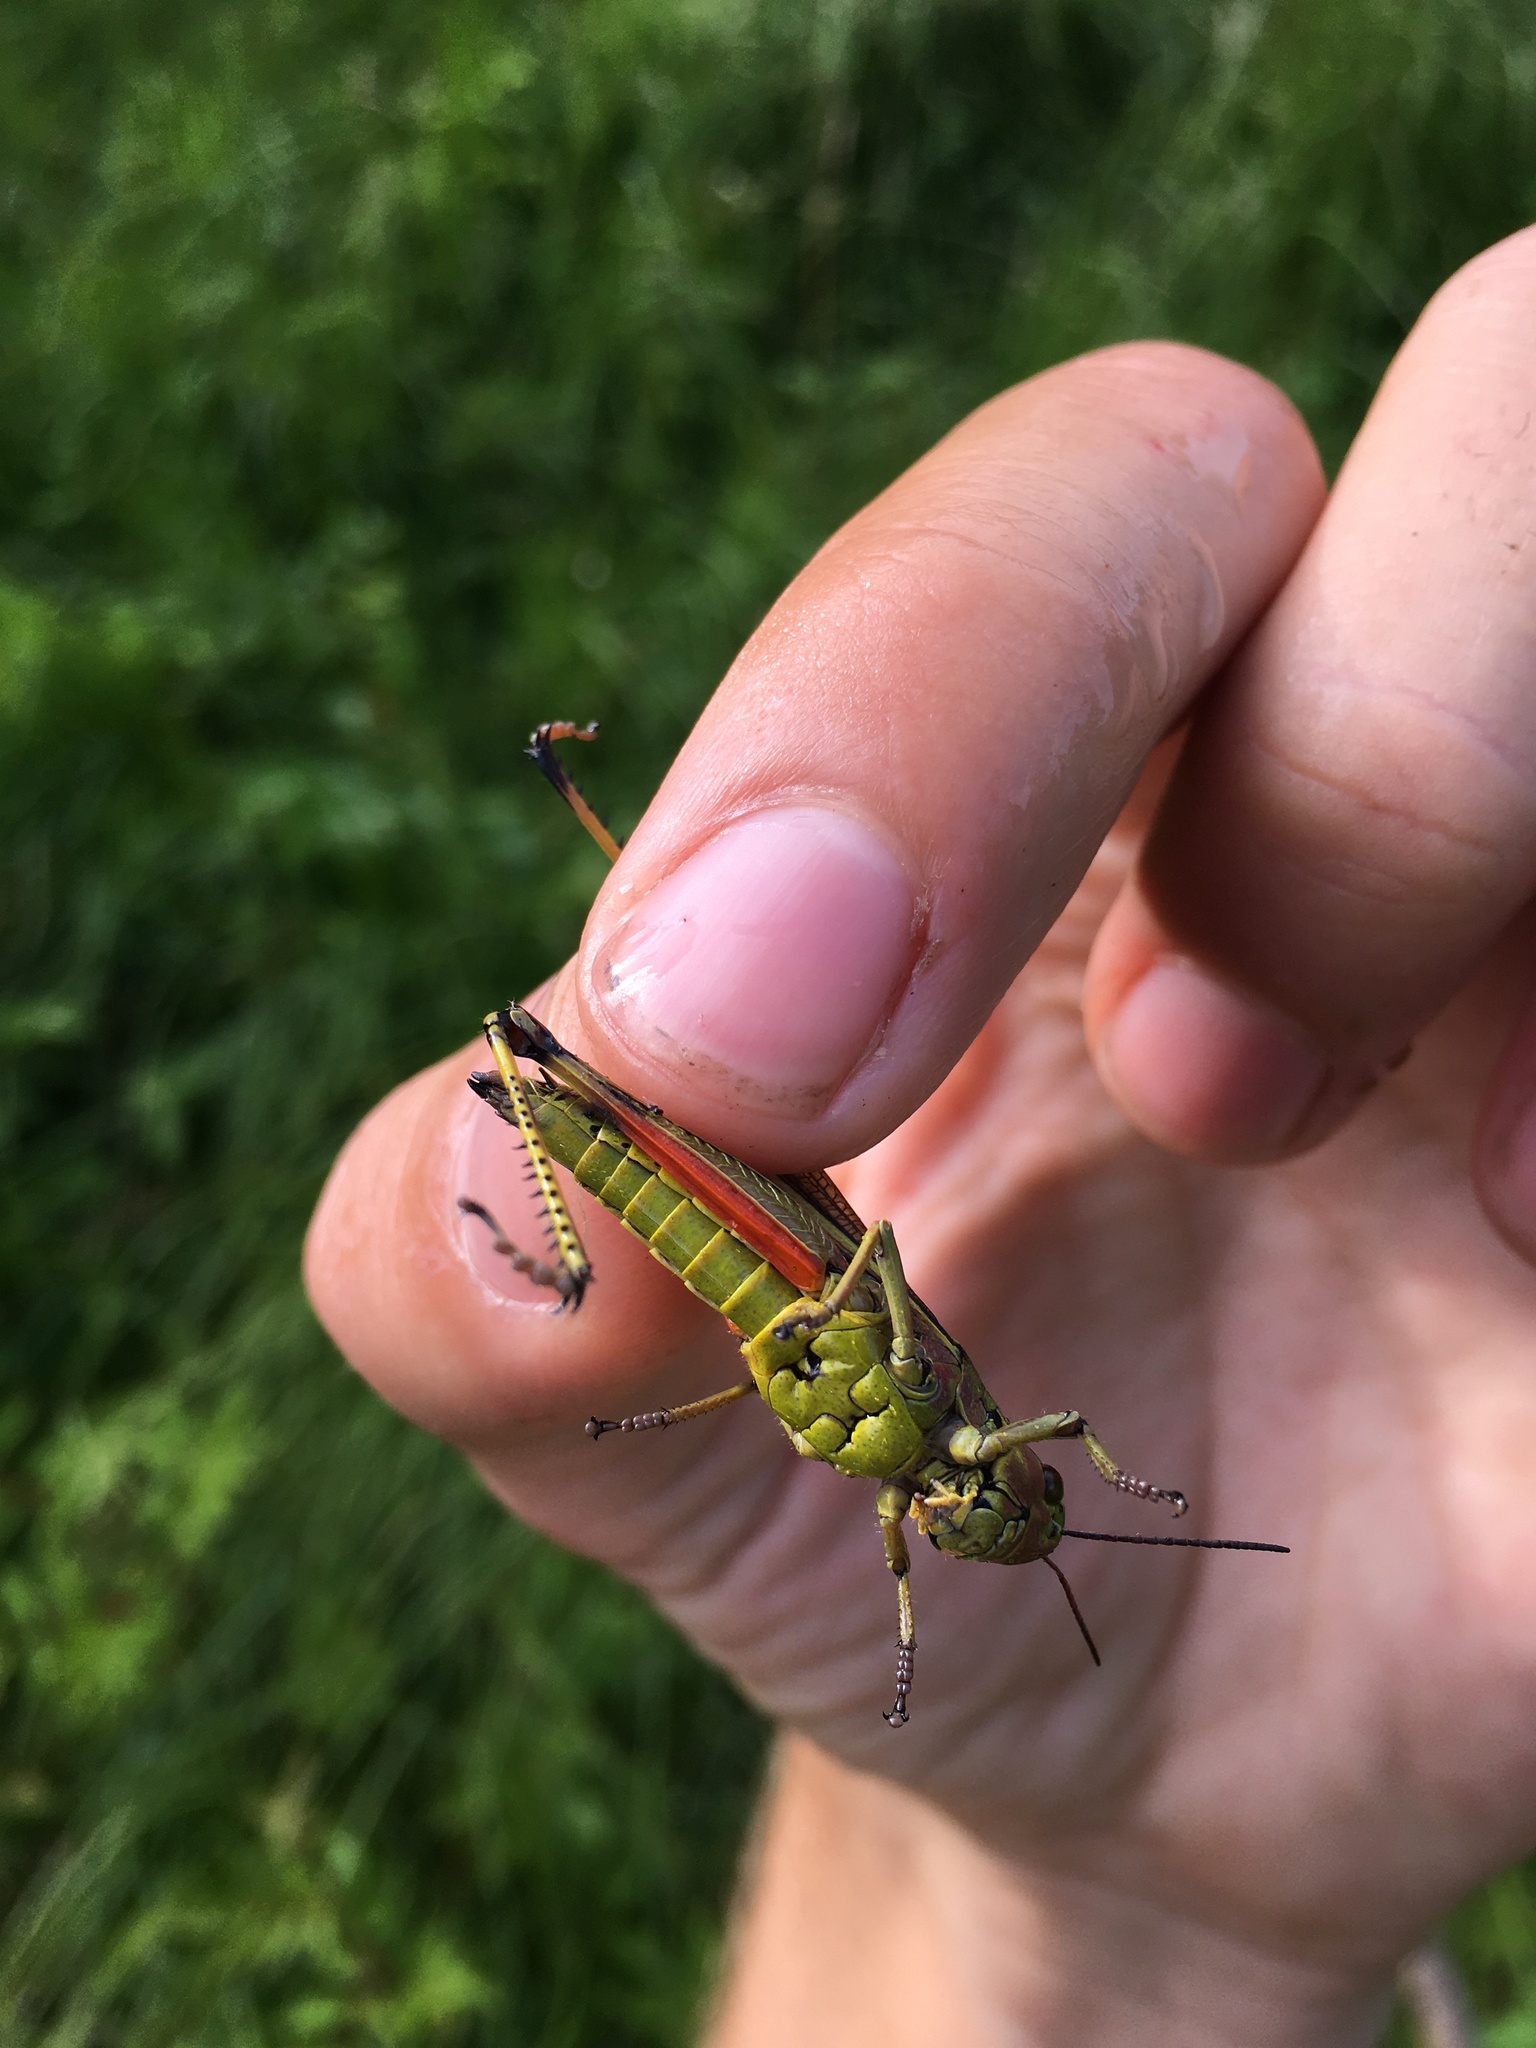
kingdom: Animalia
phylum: Arthropoda
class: Insecta
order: Orthoptera
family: Acrididae
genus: Stethophyma
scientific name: Stethophyma grossum
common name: Large marsh grasshopper
